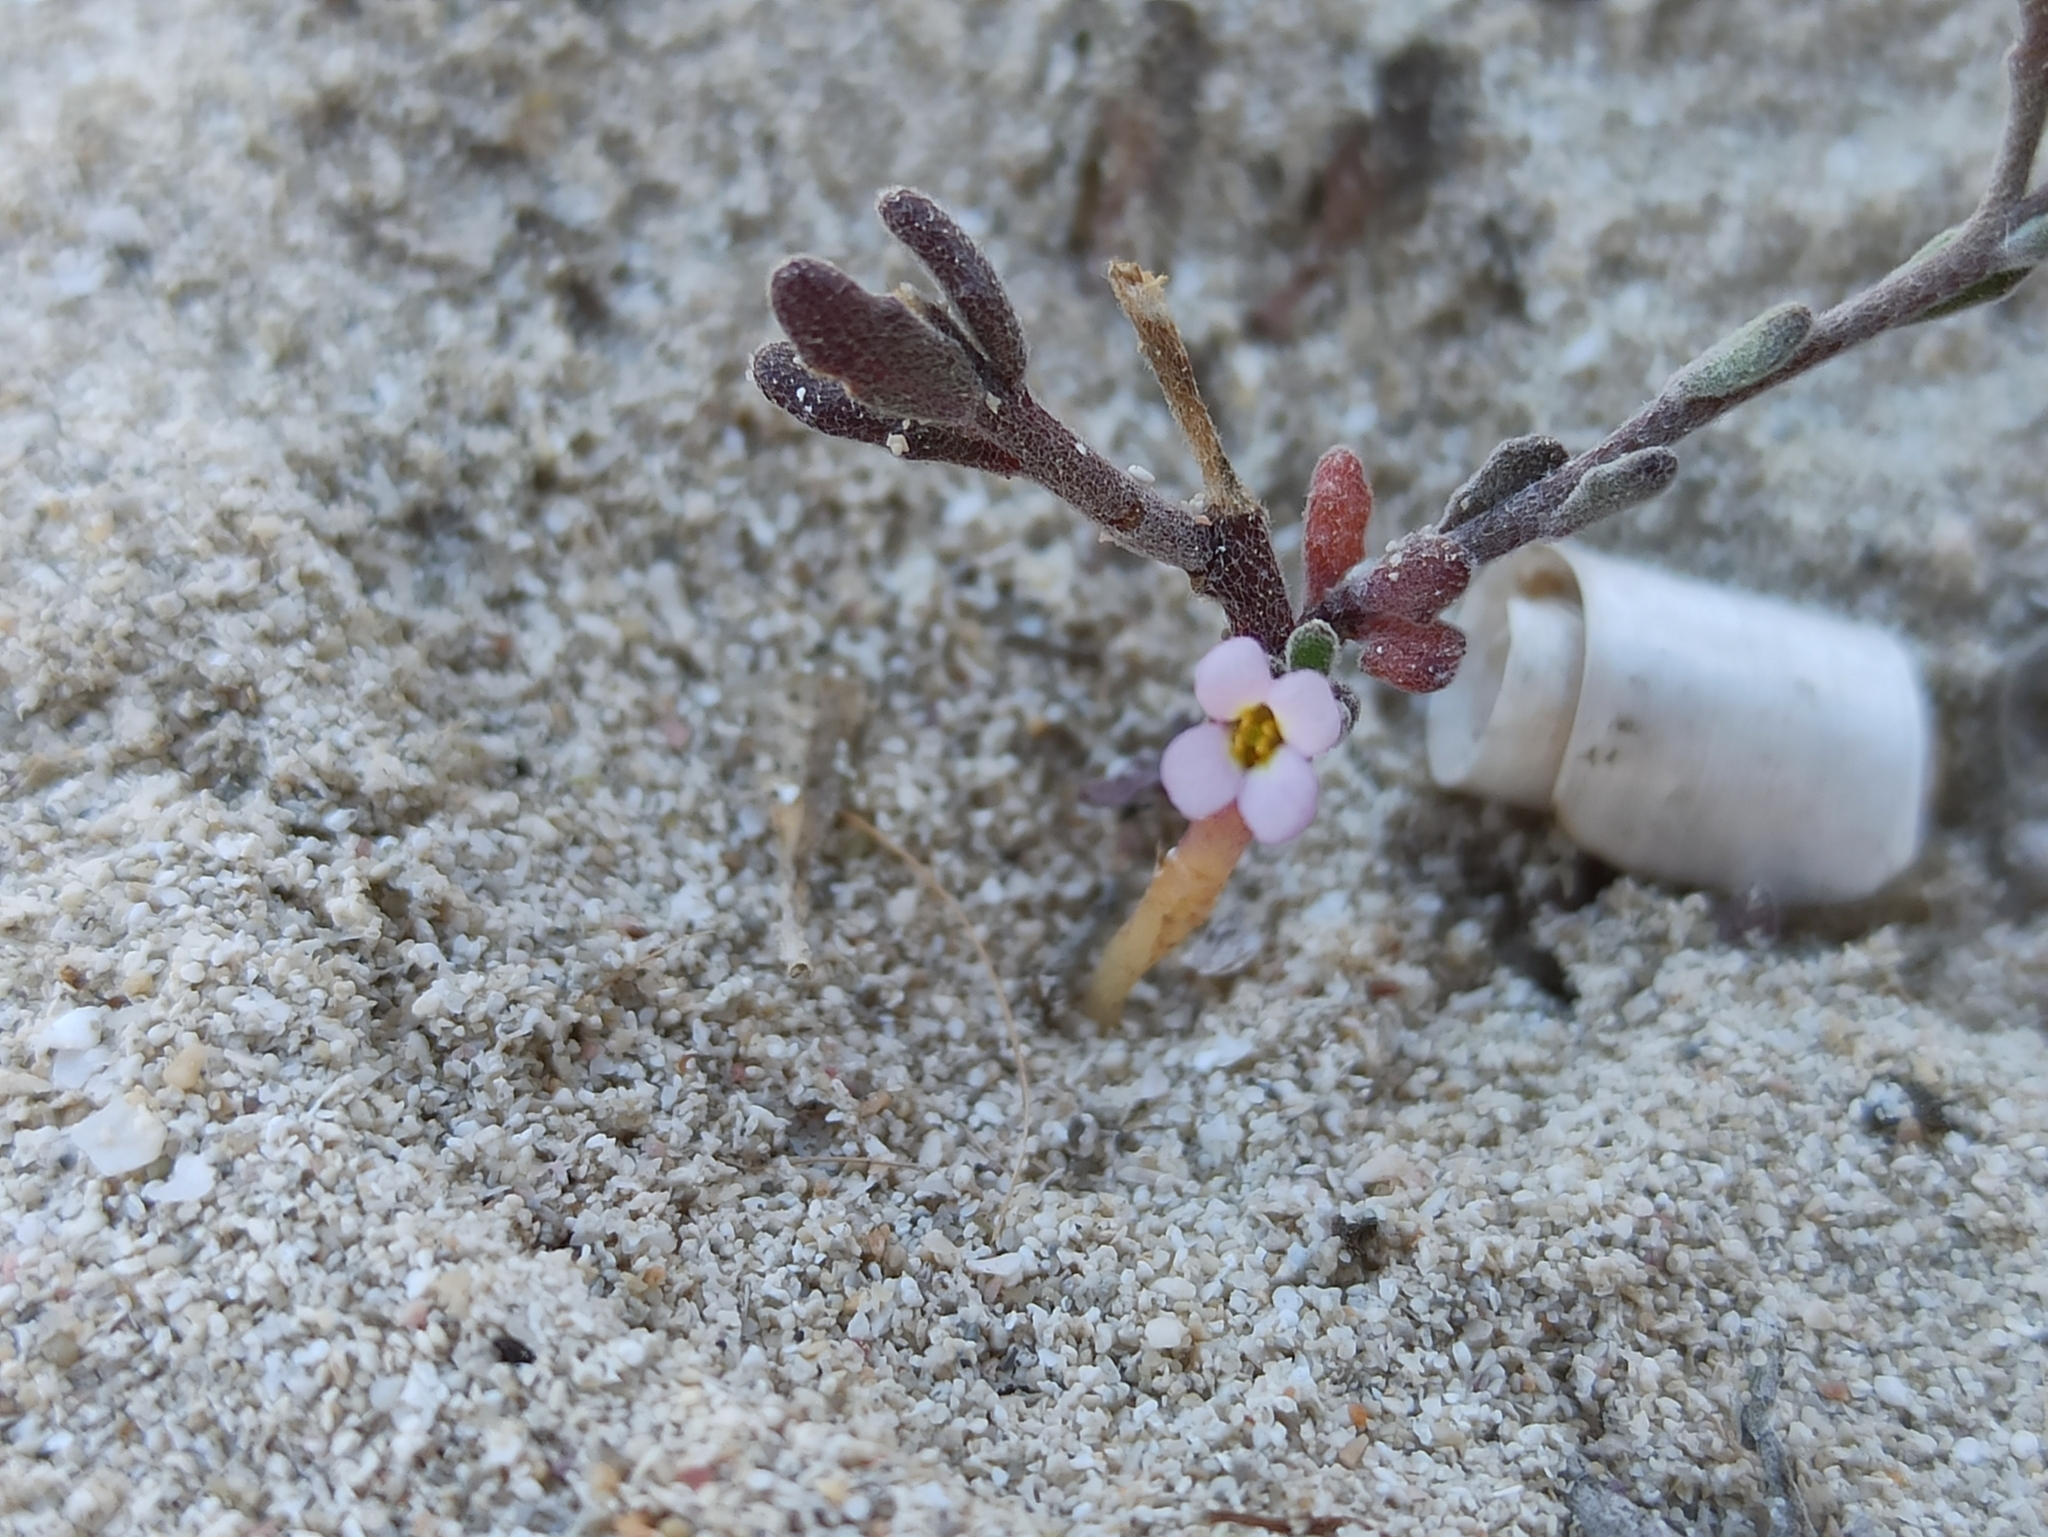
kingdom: Plantae
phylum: Tracheophyta
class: Magnoliopsida
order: Brassicales
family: Brassicaceae
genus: Maresia
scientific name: Maresia nana
